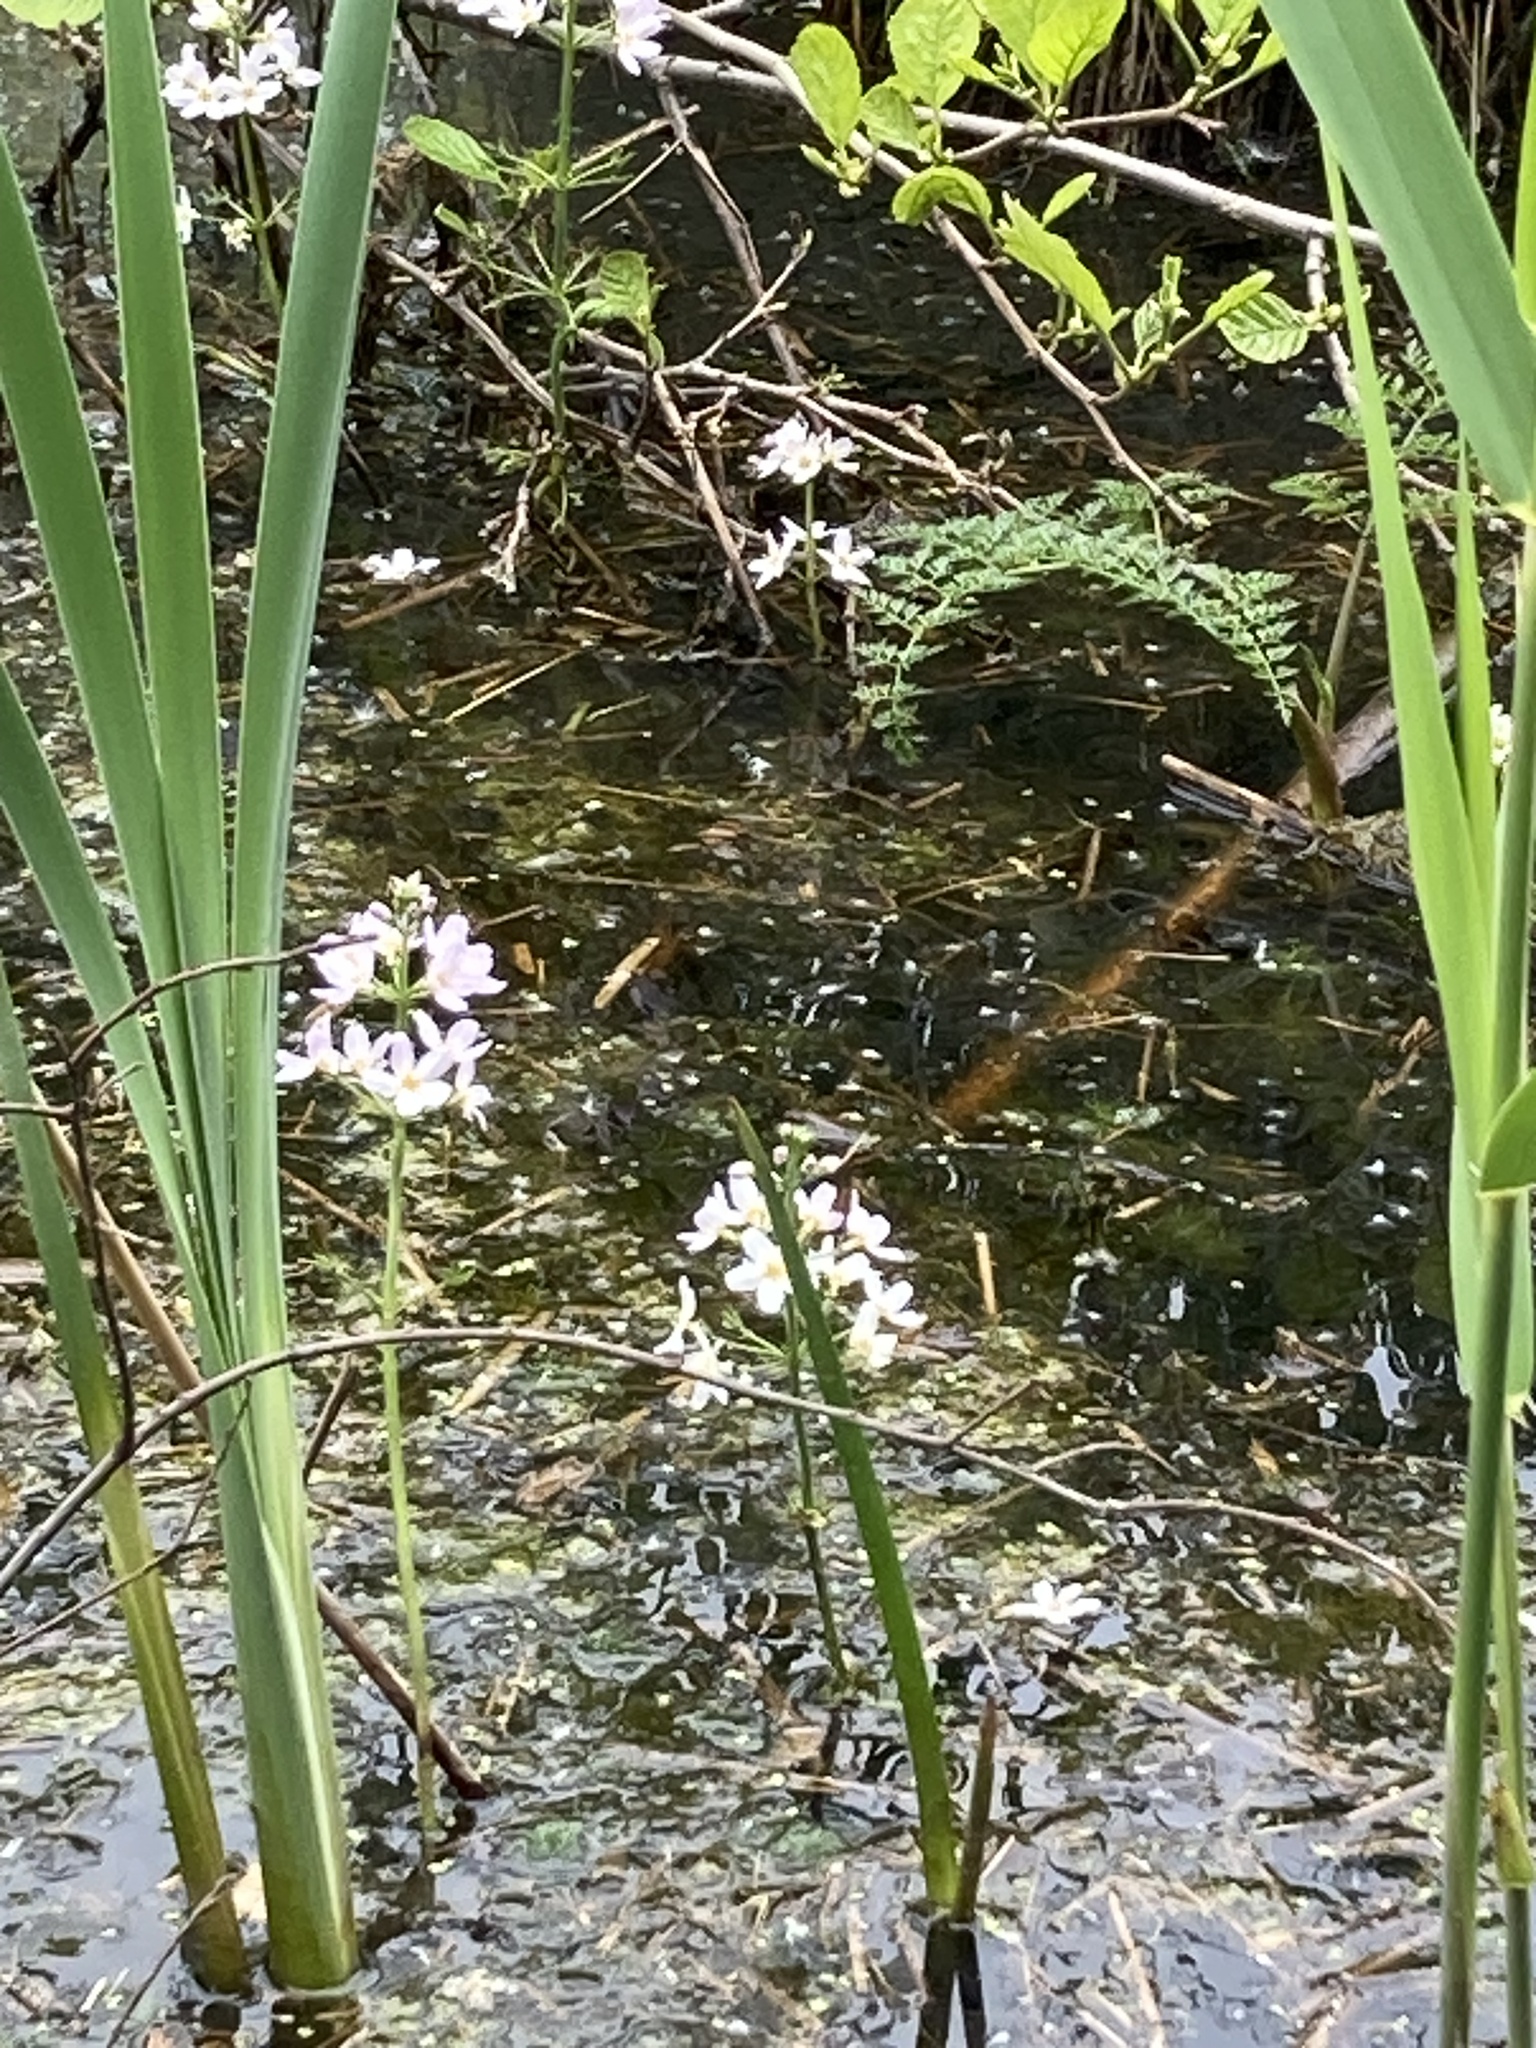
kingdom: Plantae
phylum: Tracheophyta
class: Magnoliopsida
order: Ericales
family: Primulaceae
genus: Hottonia
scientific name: Hottonia palustris
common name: Water-violet
